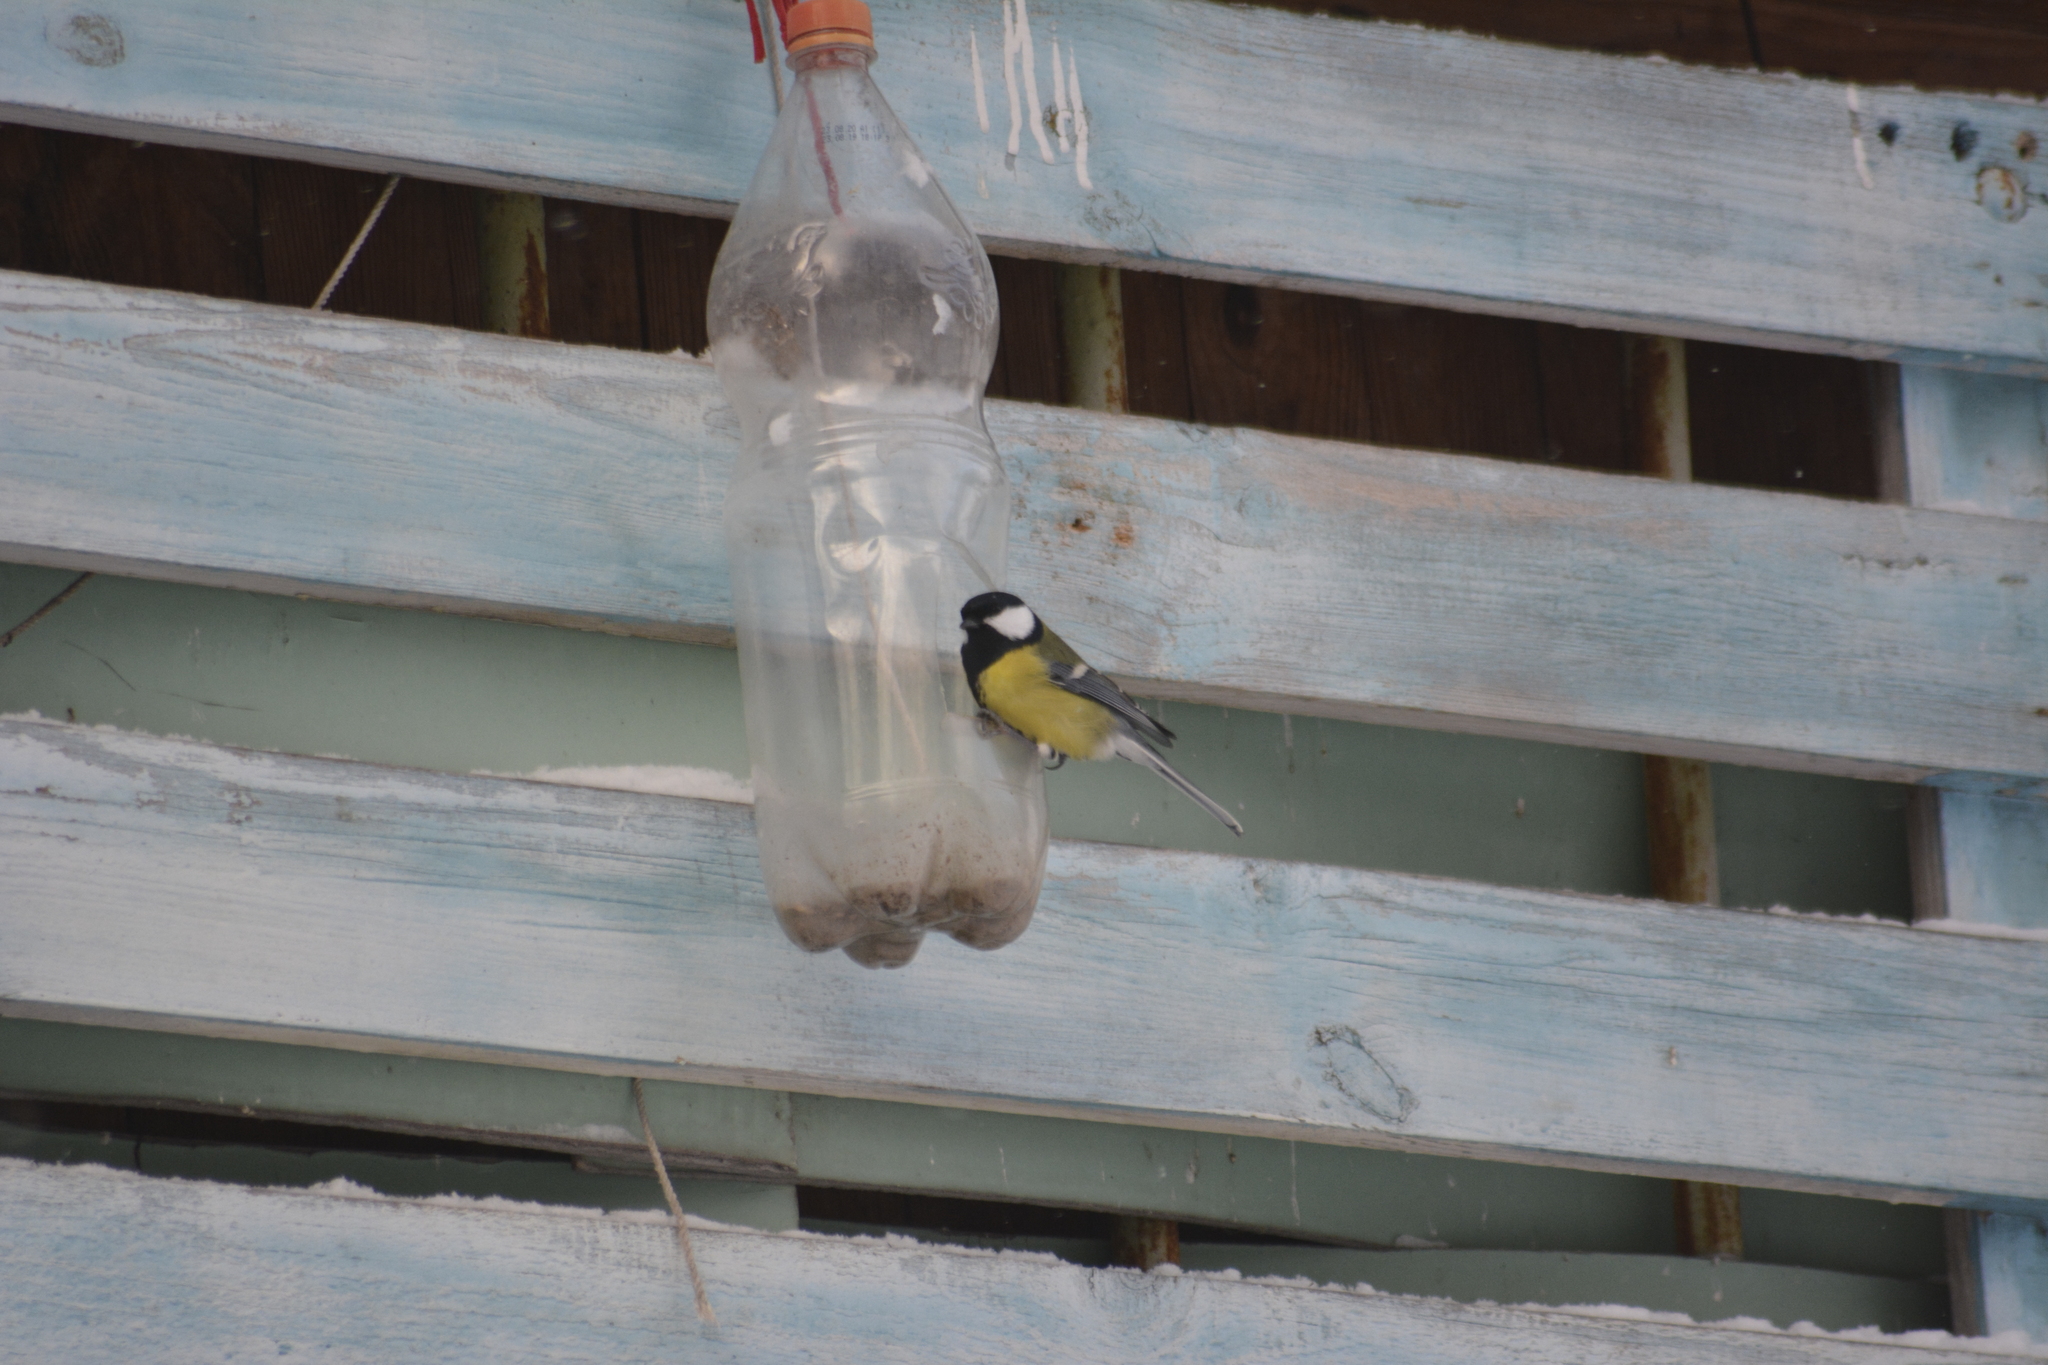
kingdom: Animalia
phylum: Chordata
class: Aves
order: Passeriformes
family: Paridae
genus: Parus
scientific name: Parus major
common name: Great tit
